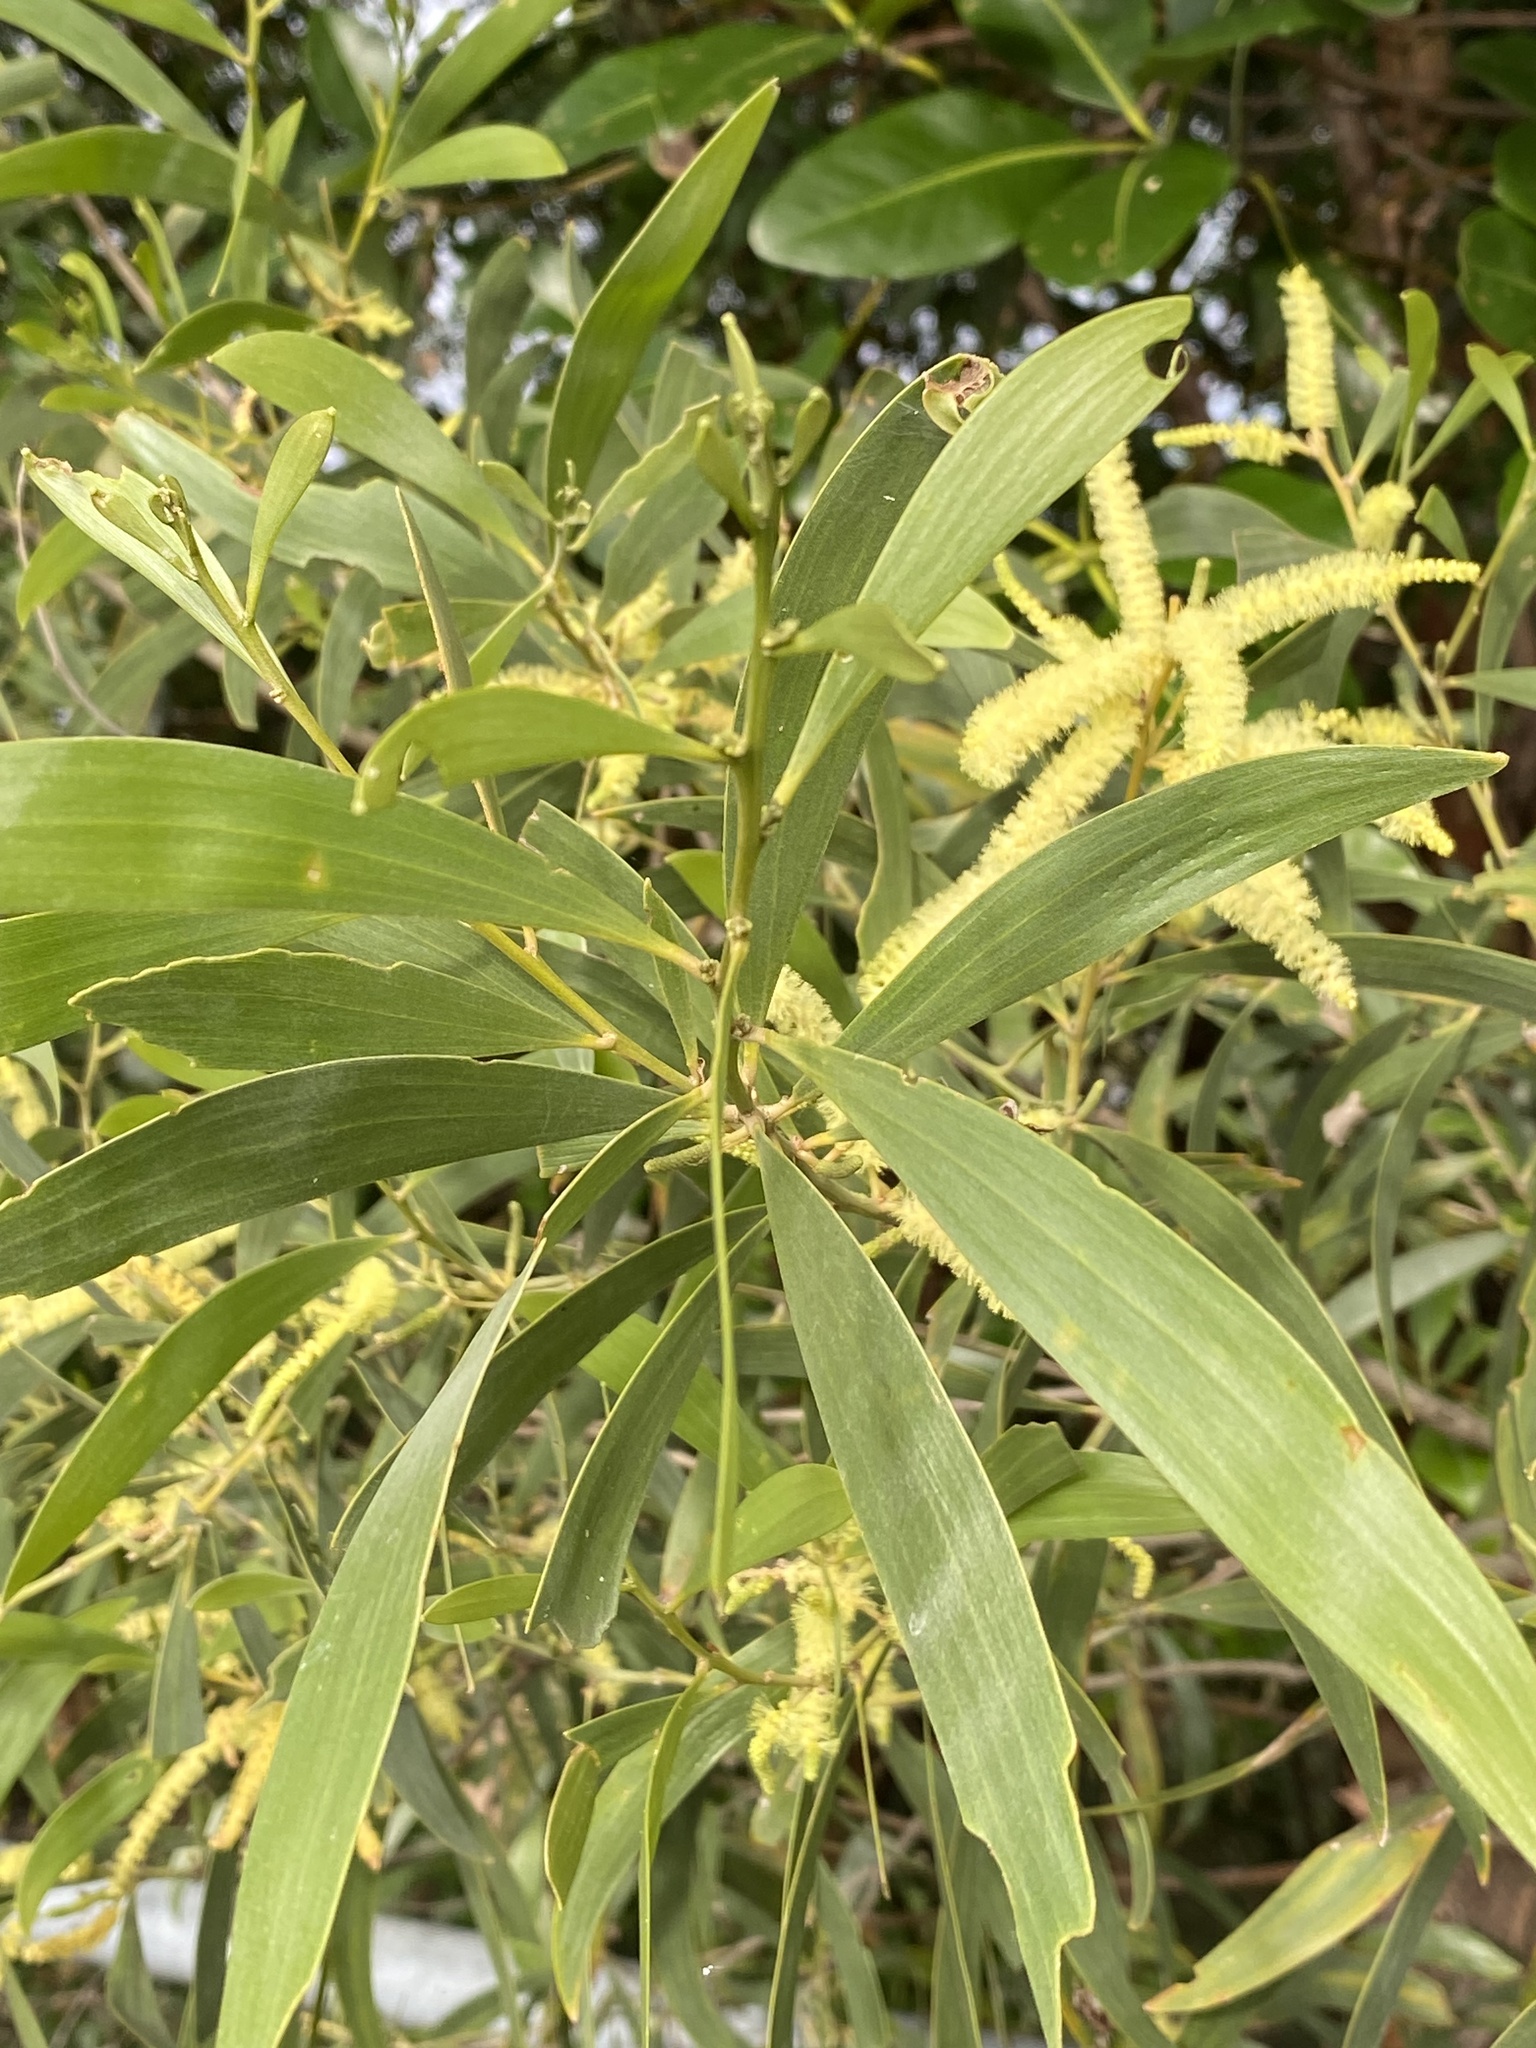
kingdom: Plantae
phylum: Tracheophyta
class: Magnoliopsida
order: Fabales
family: Fabaceae
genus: Acacia
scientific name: Acacia disparrima
